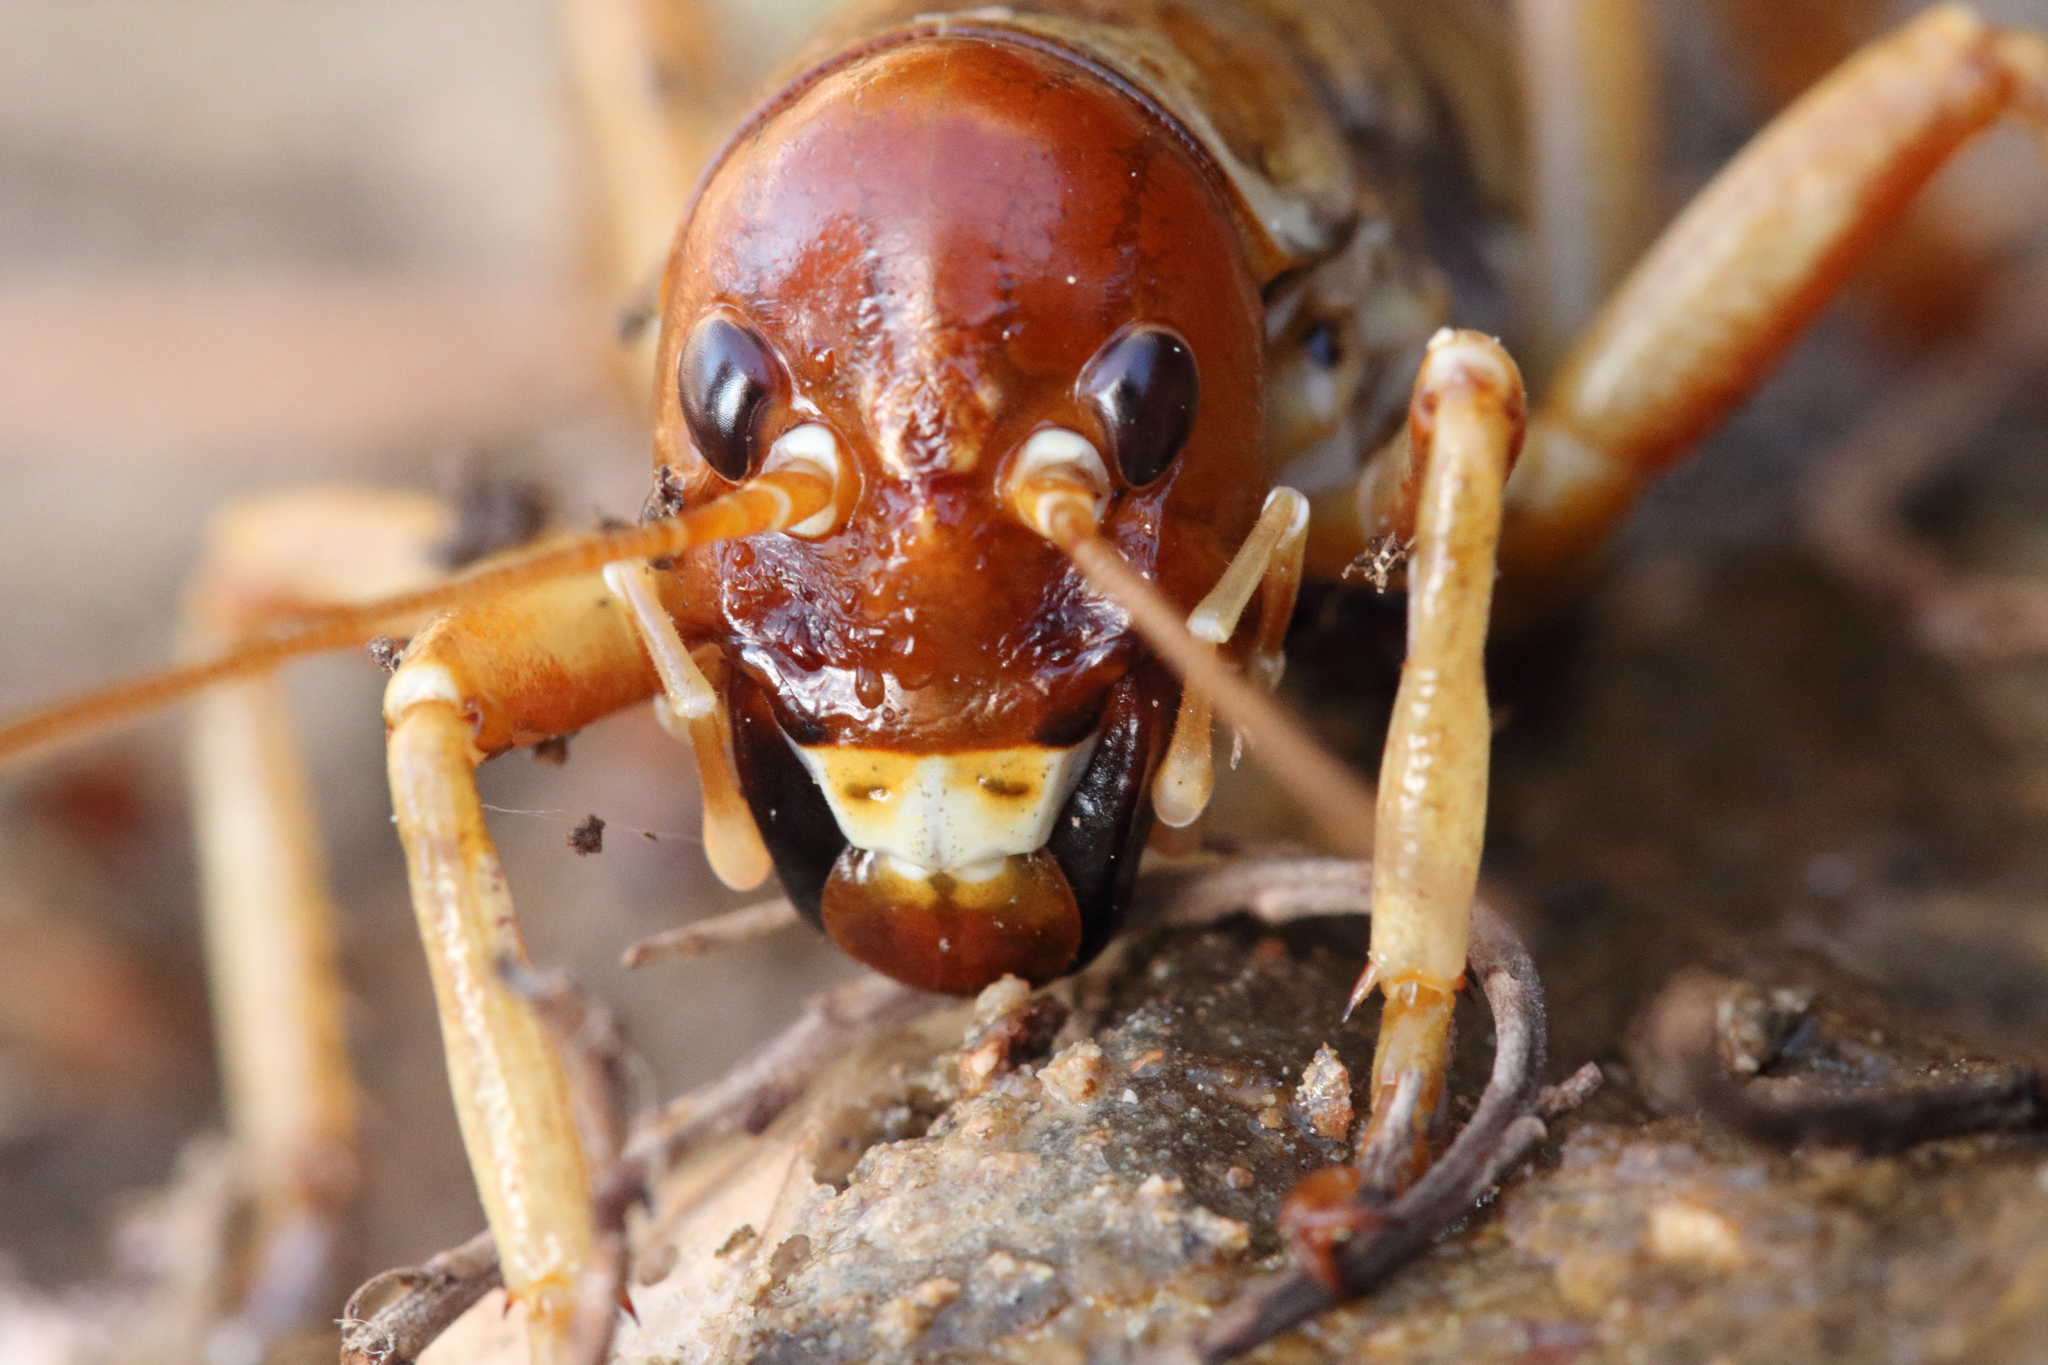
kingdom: Animalia
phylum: Arthropoda
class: Insecta
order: Orthoptera
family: Anostostomatidae
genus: Hemideina
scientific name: Hemideina maori
